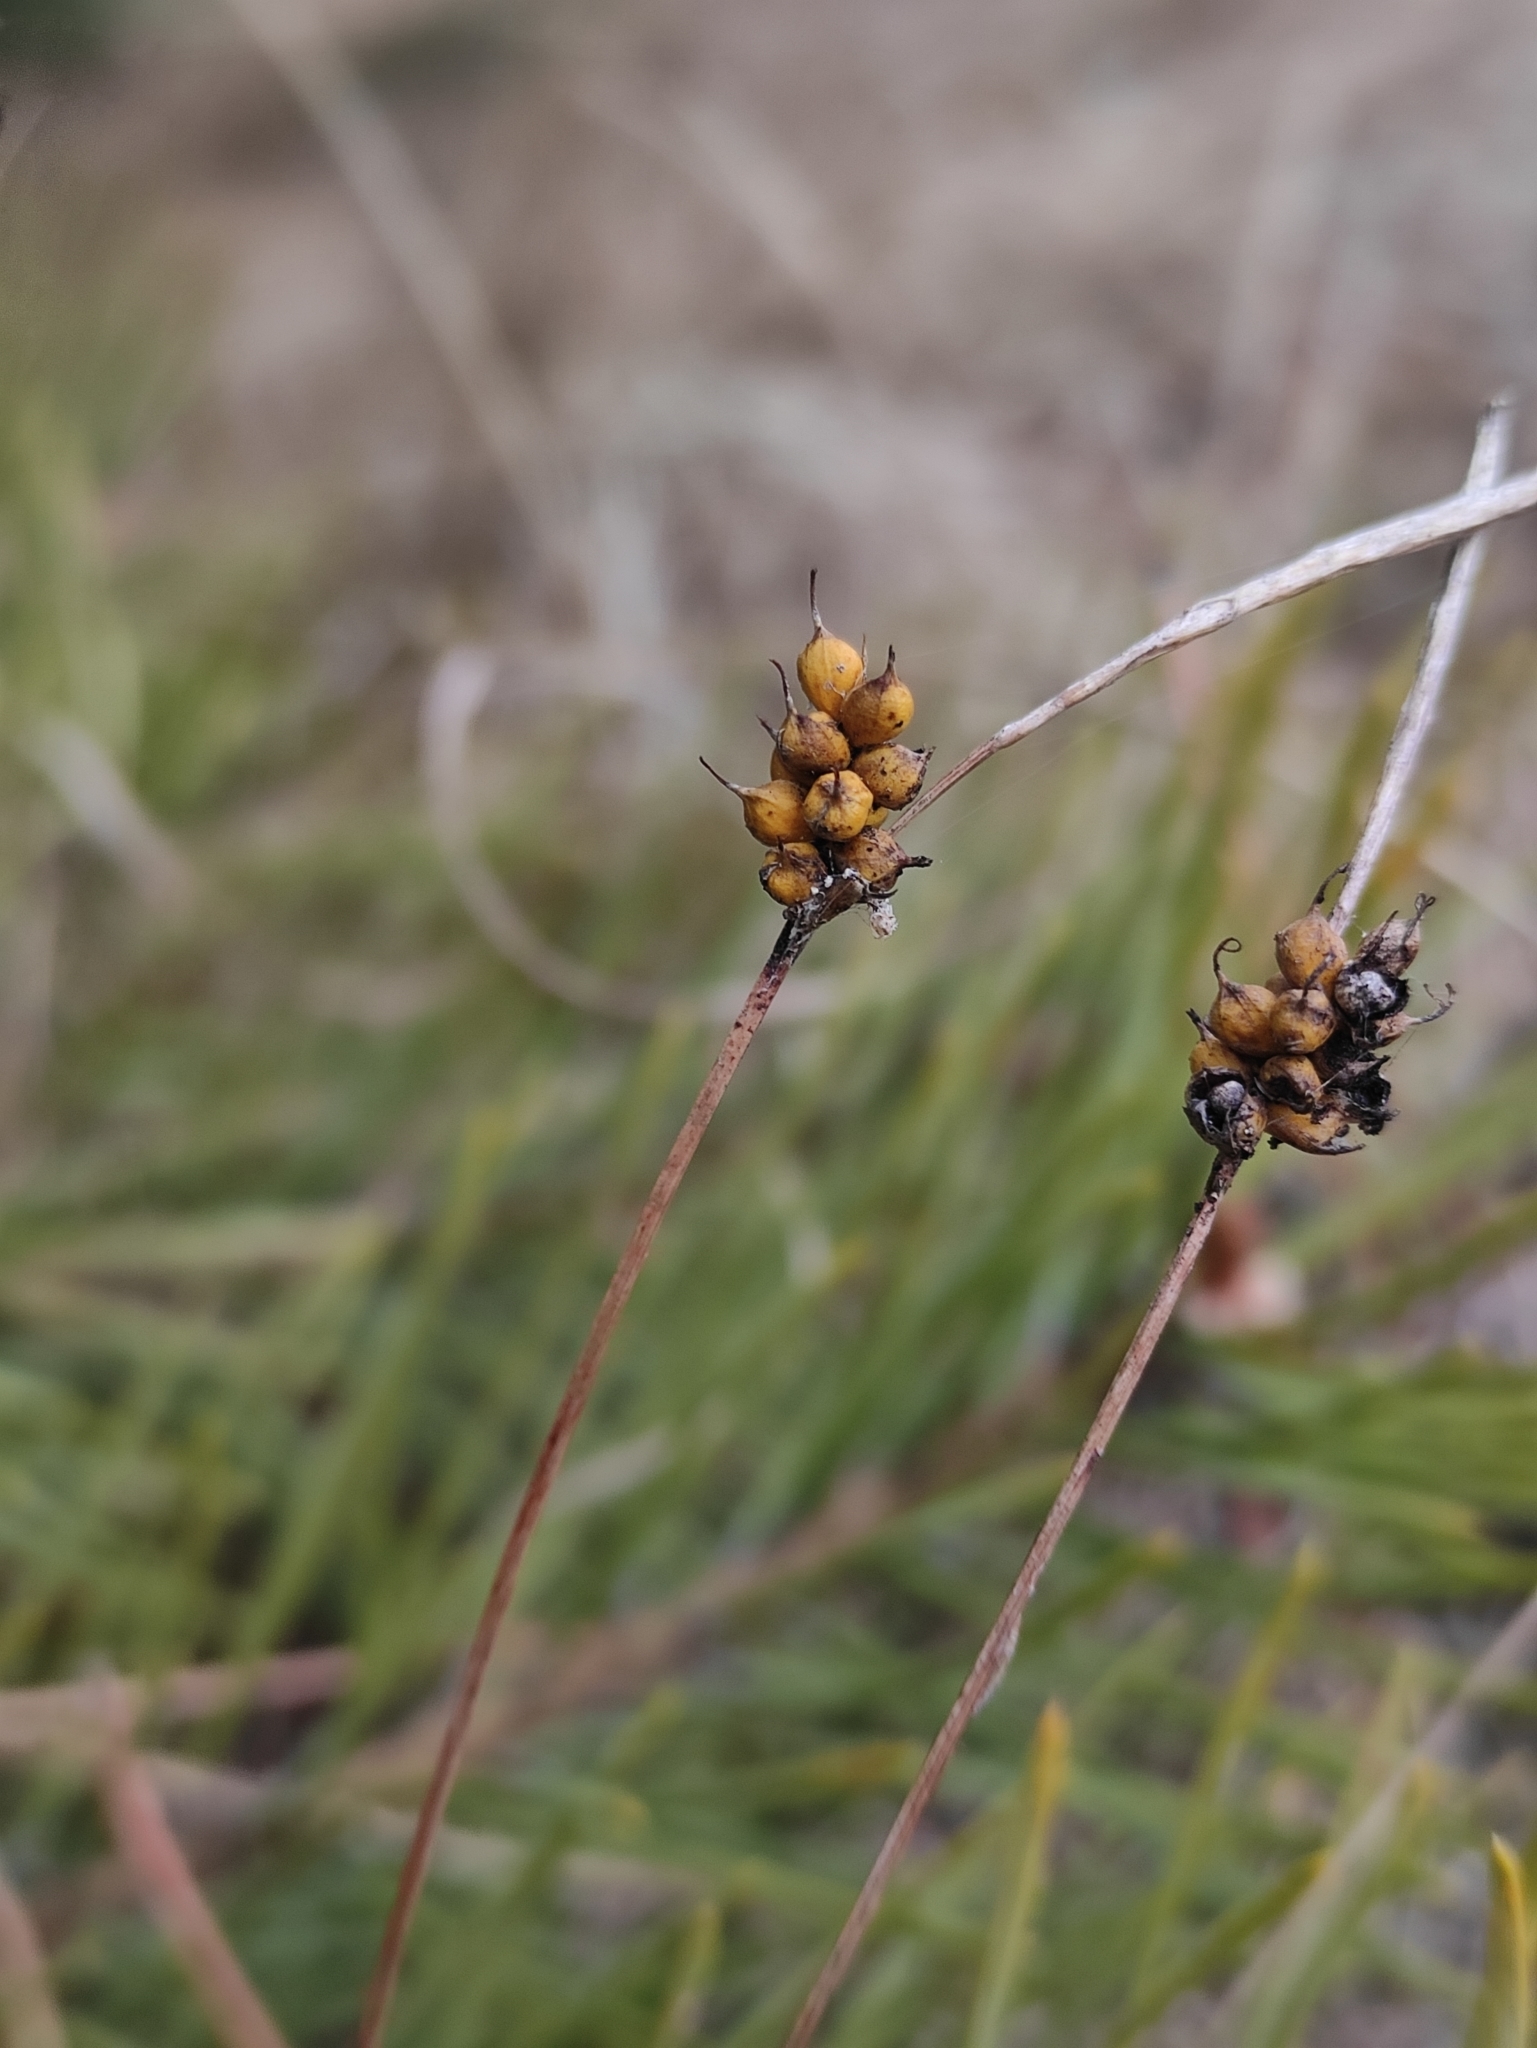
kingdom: Plantae
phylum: Tracheophyta
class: Liliopsida
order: Poales
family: Cyperaceae
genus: Carex
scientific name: Carex korshinskyi
